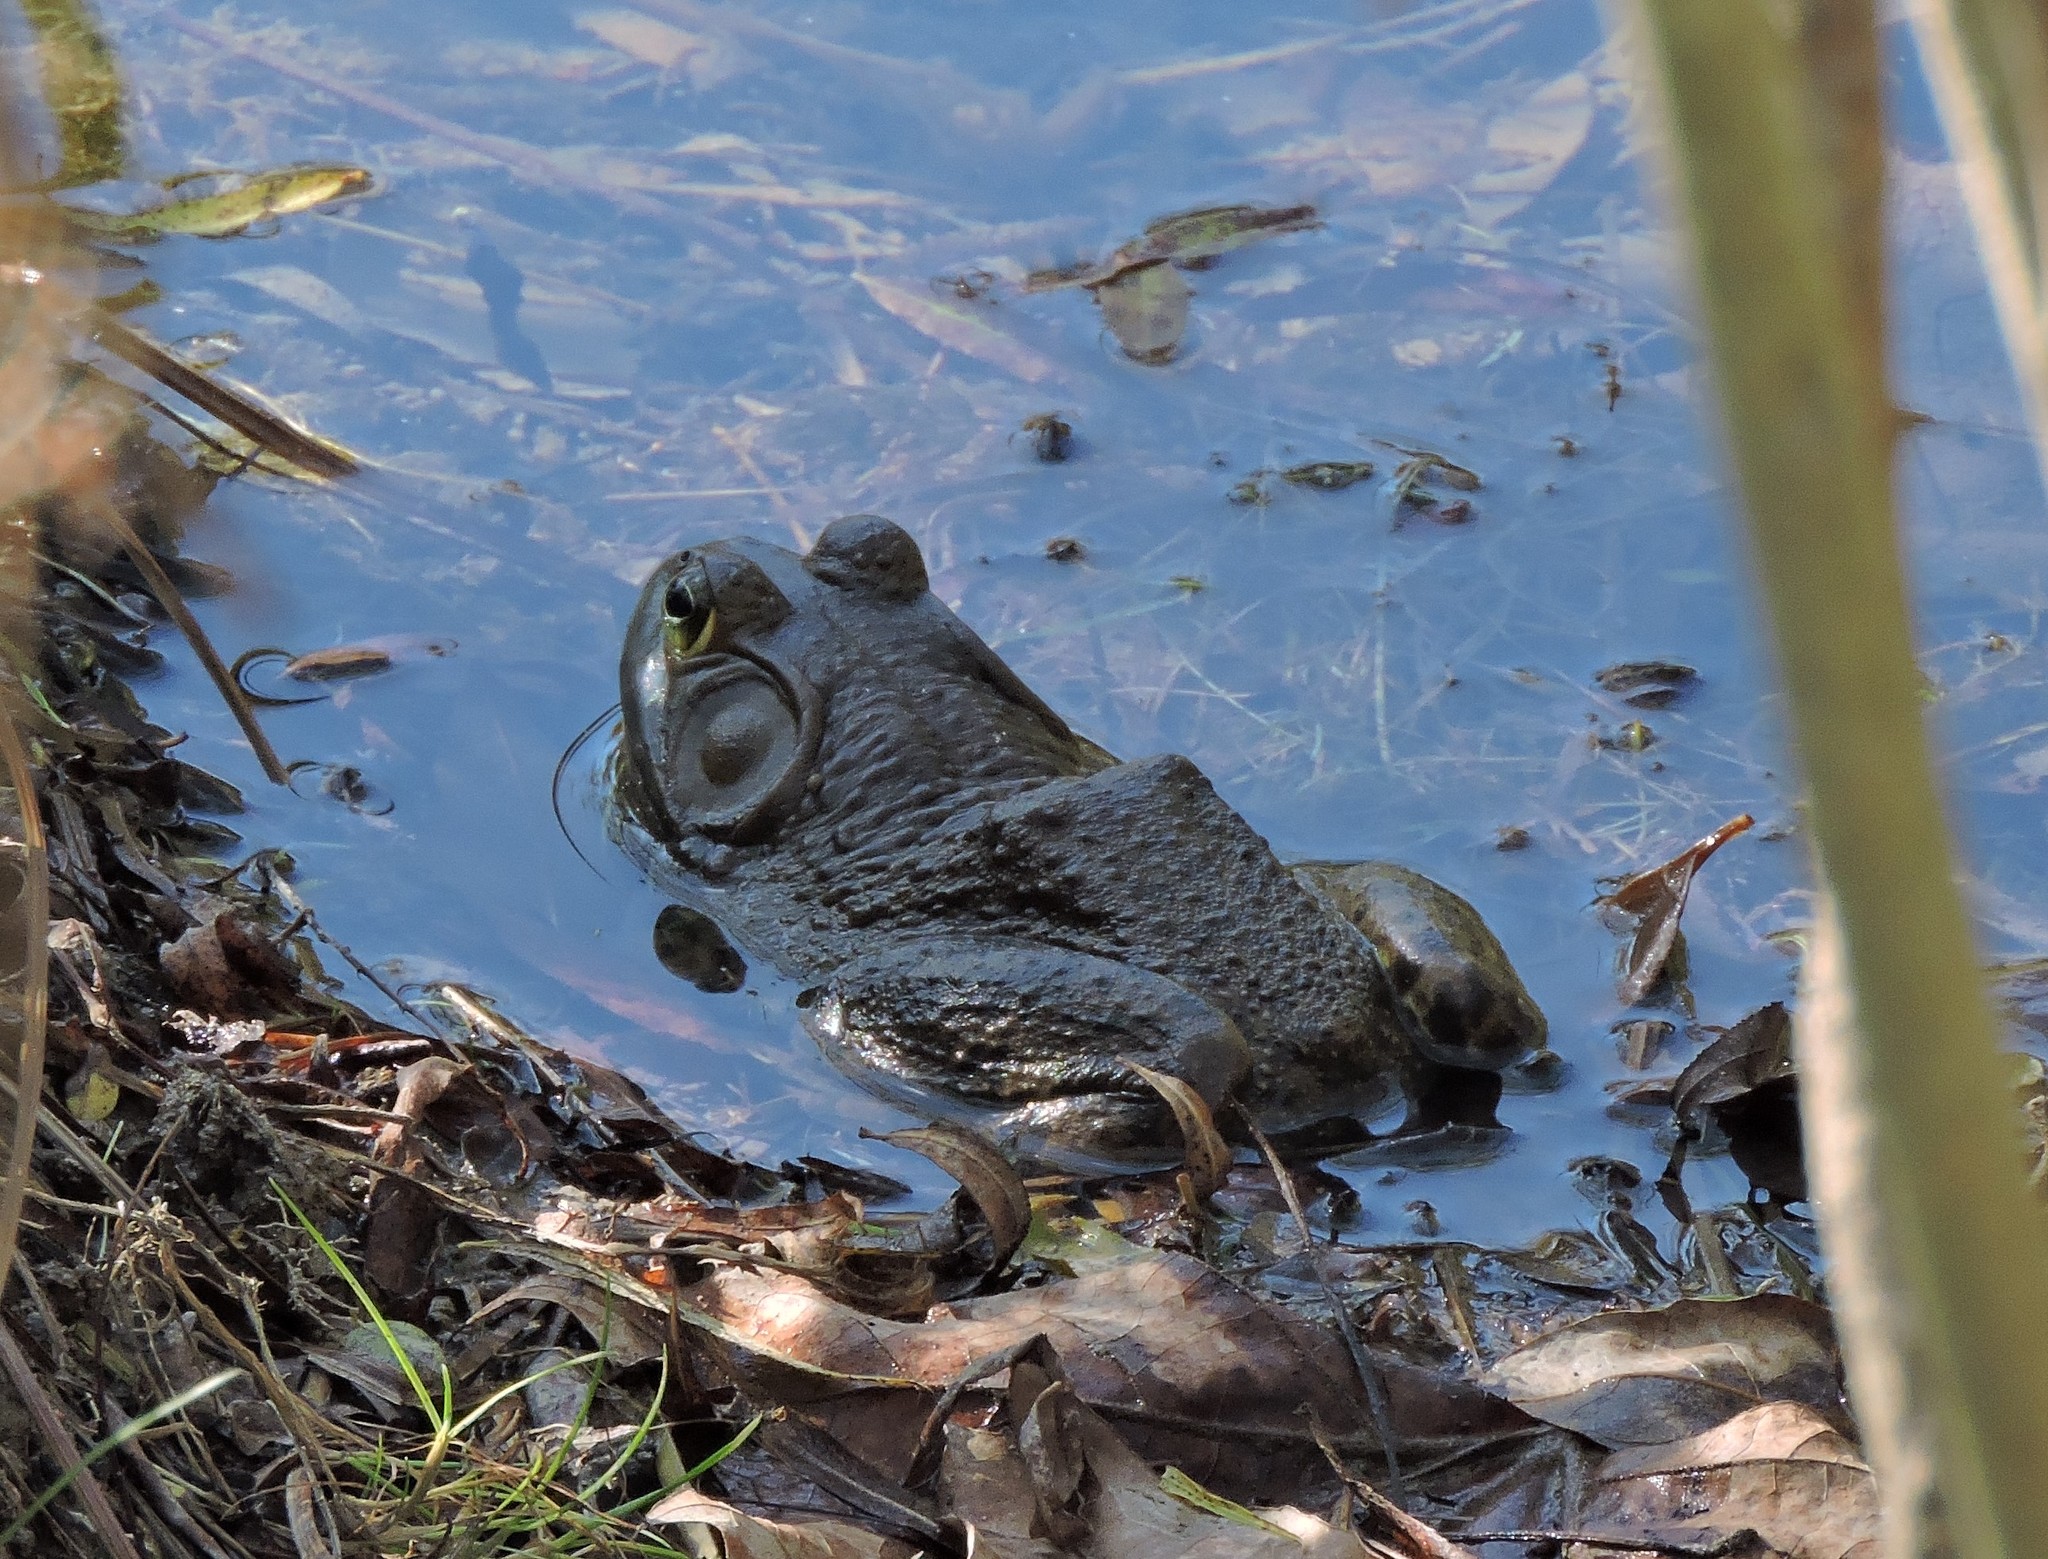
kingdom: Animalia
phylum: Chordata
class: Amphibia
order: Anura
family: Ranidae
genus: Lithobates
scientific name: Lithobates catesbeianus
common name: American bullfrog
